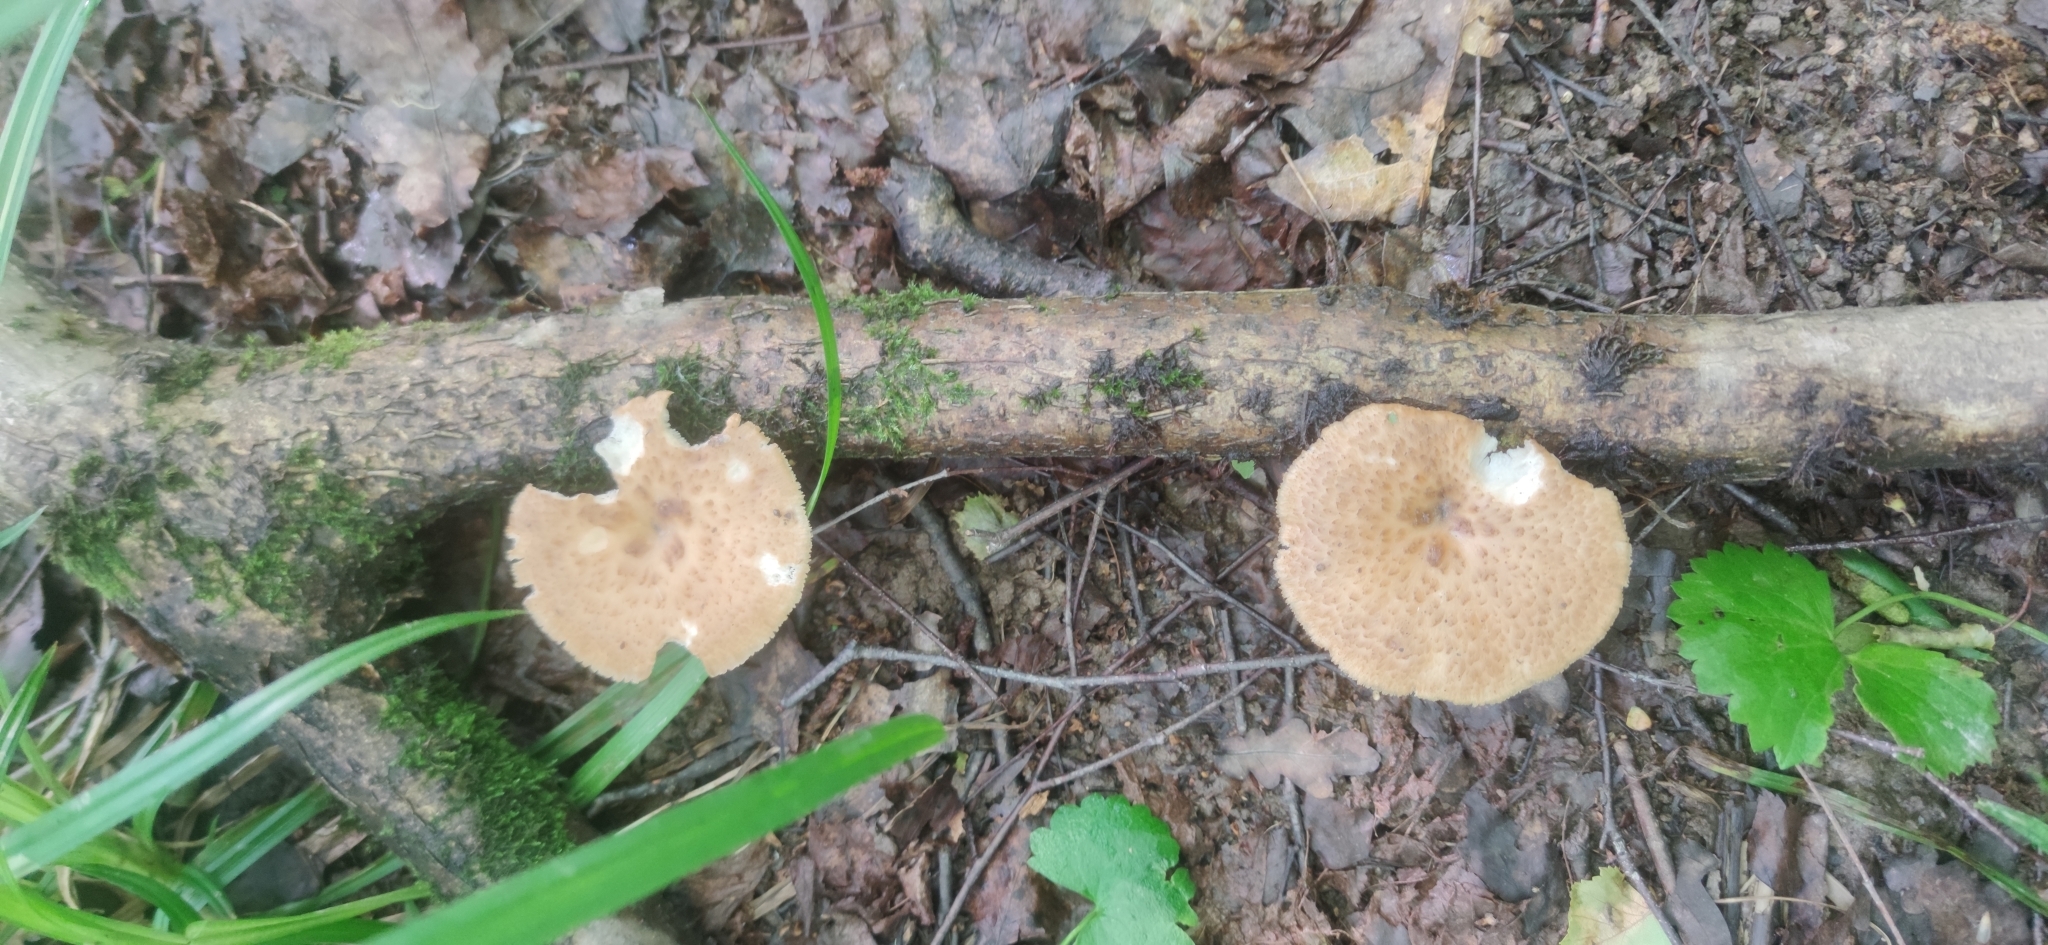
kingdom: Fungi
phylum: Basidiomycota
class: Agaricomycetes
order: Polyporales
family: Polyporaceae
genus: Polyporus
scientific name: Polyporus tuberaster
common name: Tuberous polypore
